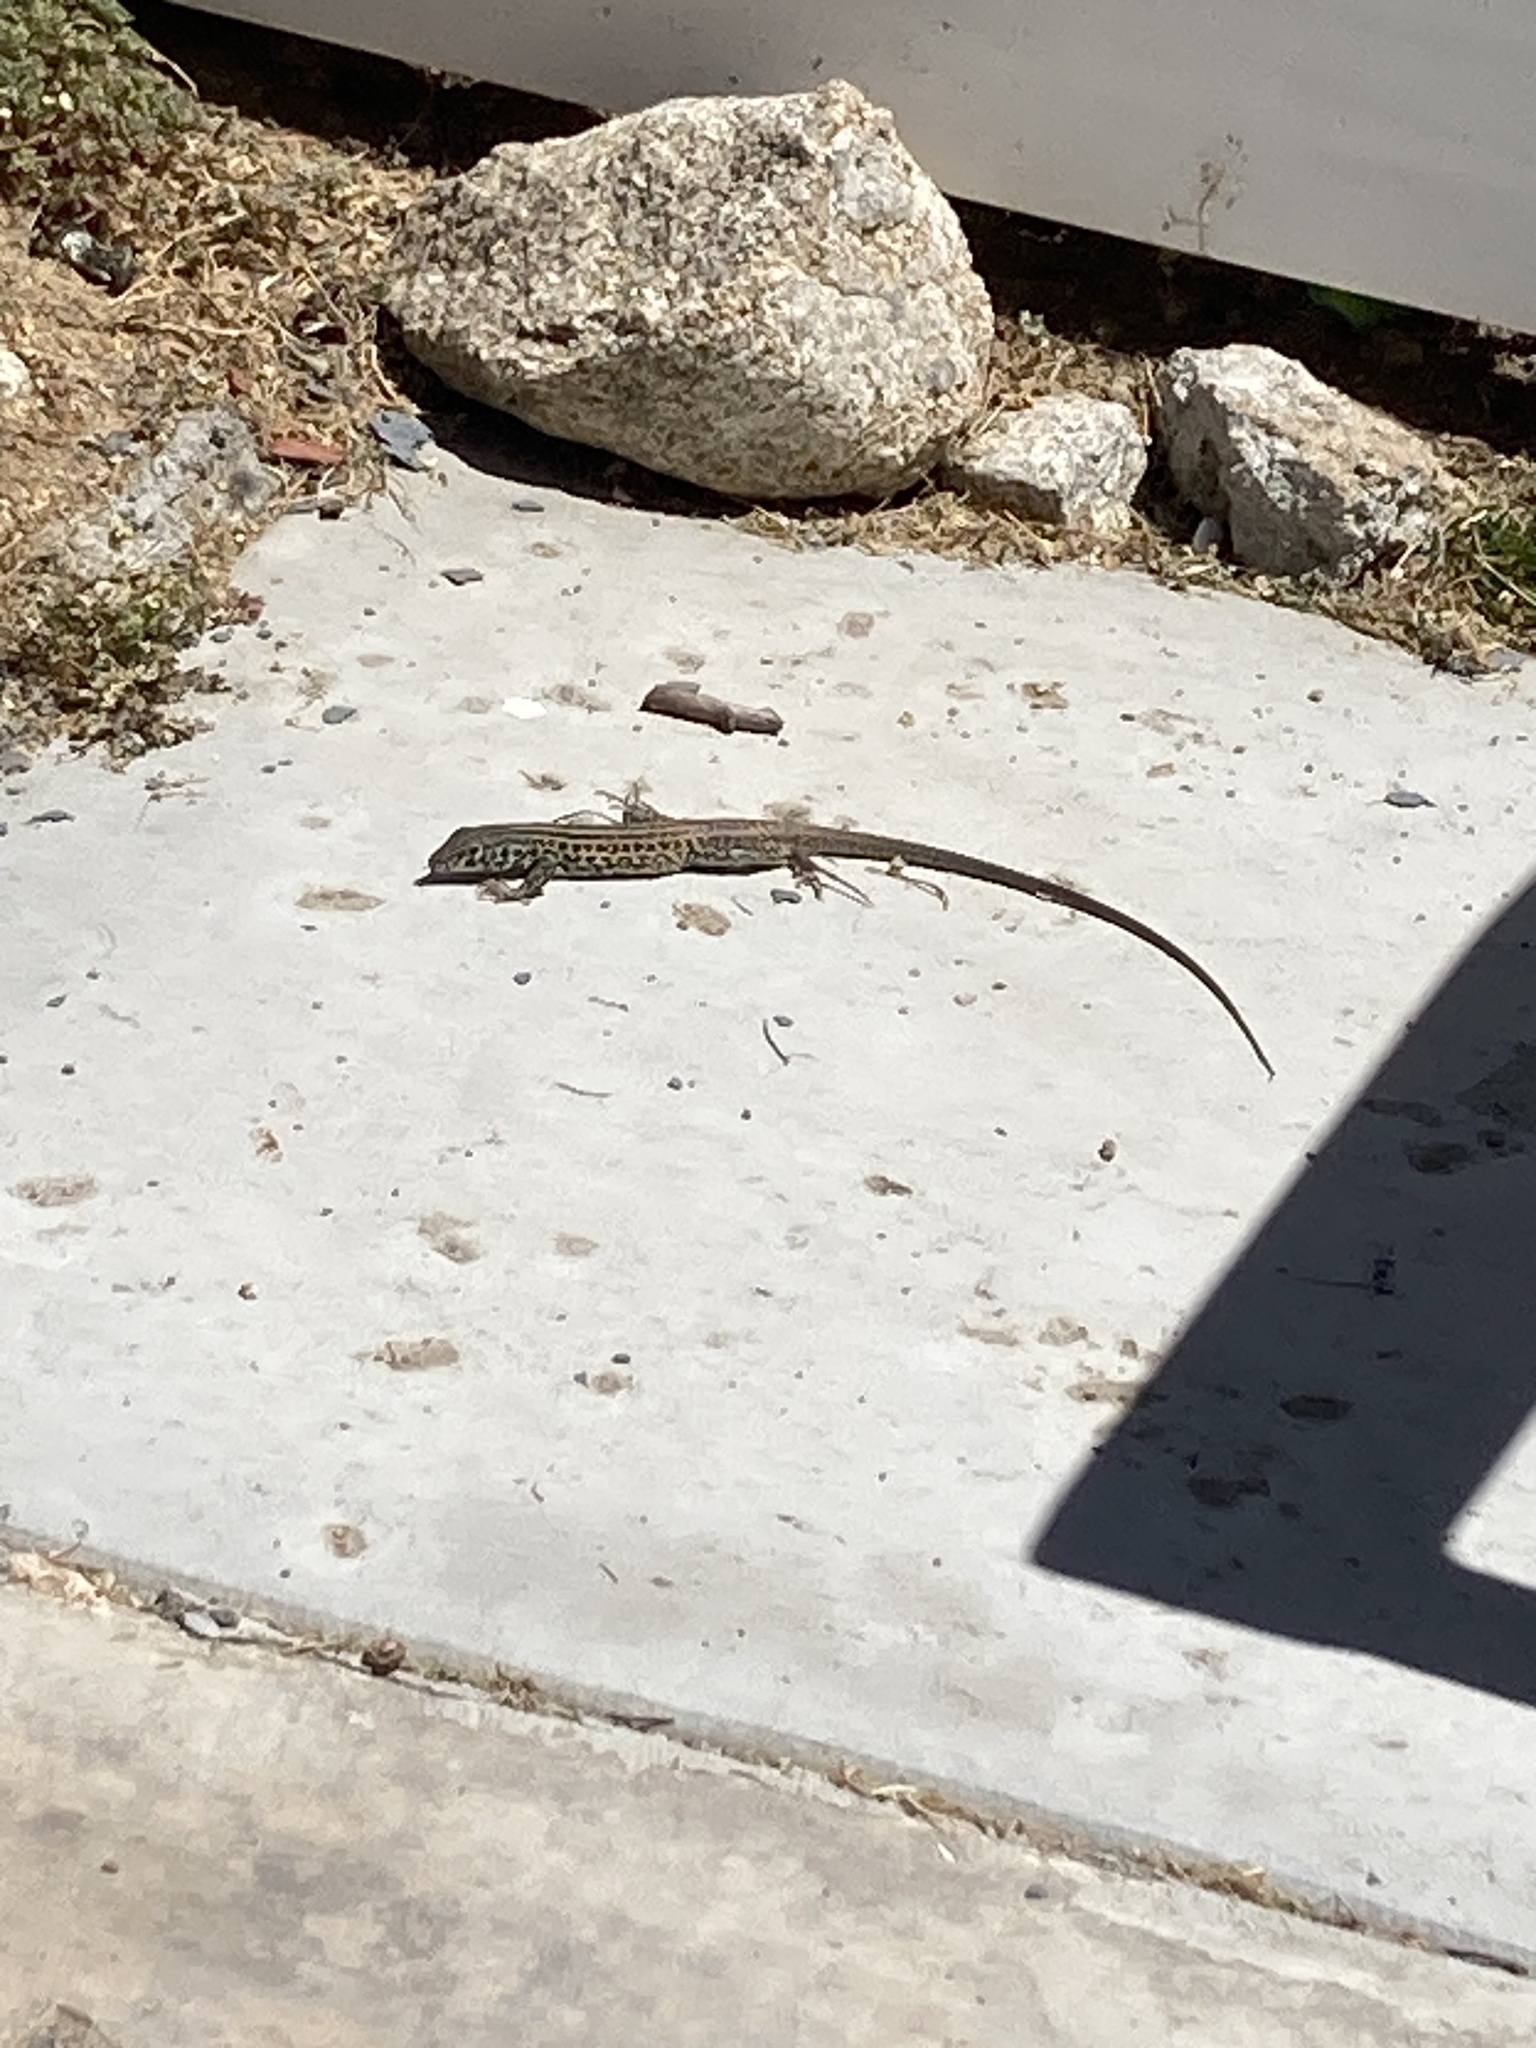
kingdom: Animalia
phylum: Chordata
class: Squamata
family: Teiidae
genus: Aspidoscelis
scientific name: Aspidoscelis tigris
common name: Tiger whiptail
